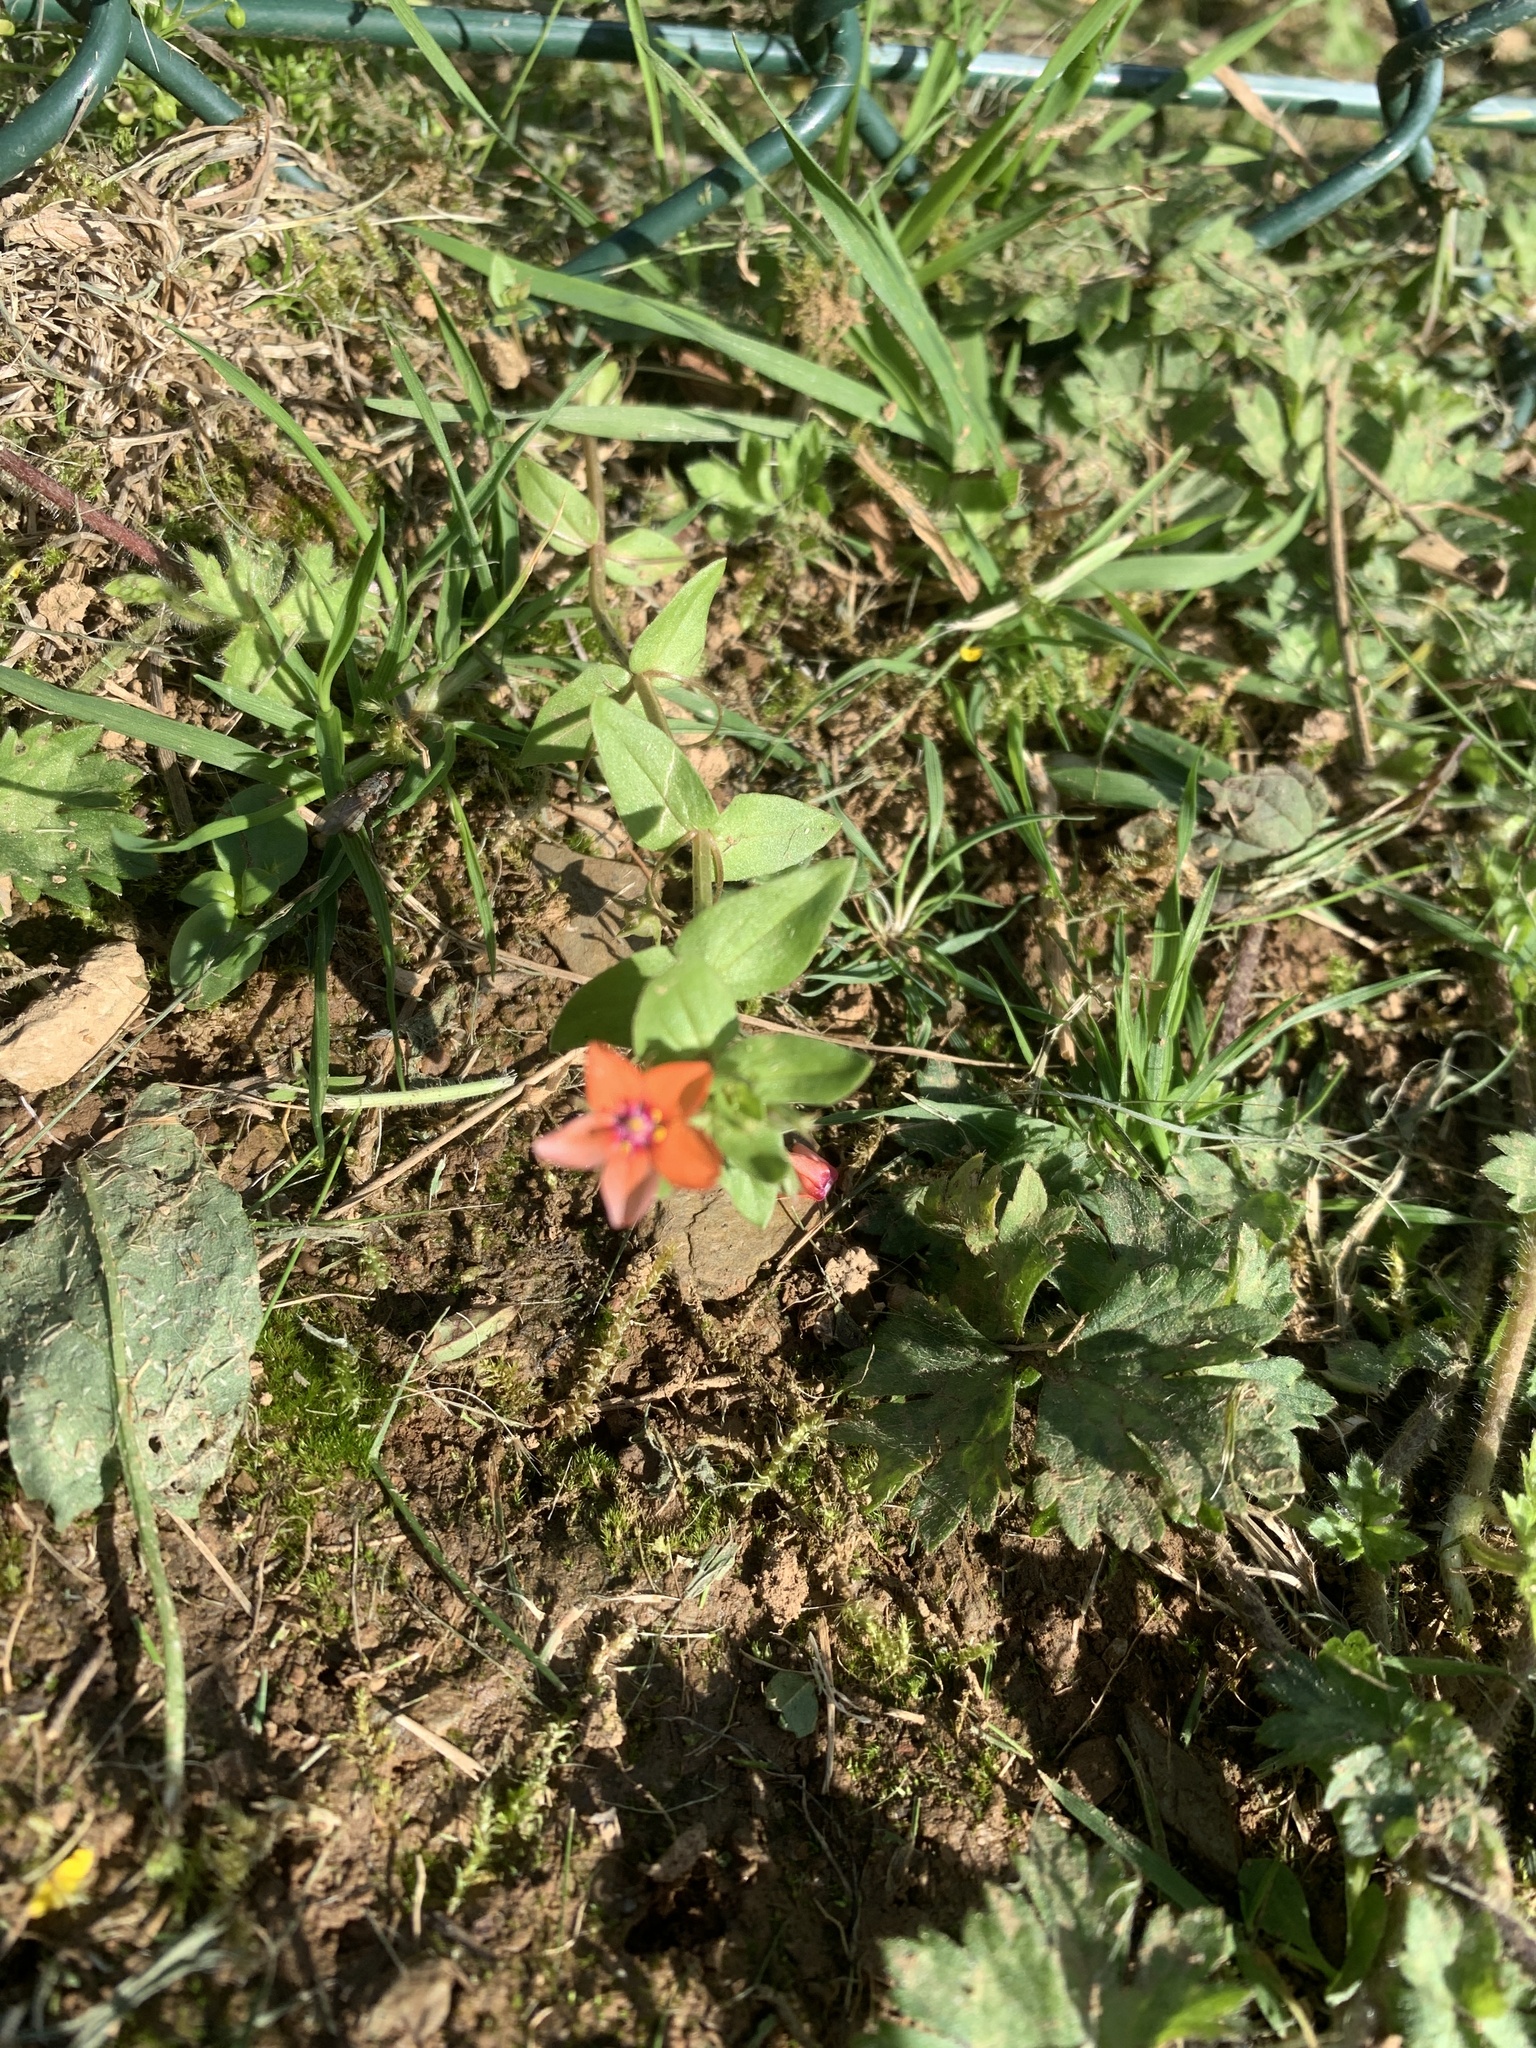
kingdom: Plantae
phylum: Tracheophyta
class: Magnoliopsida
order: Ericales
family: Primulaceae
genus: Lysimachia
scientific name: Lysimachia arvensis
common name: Scarlet pimpernel
